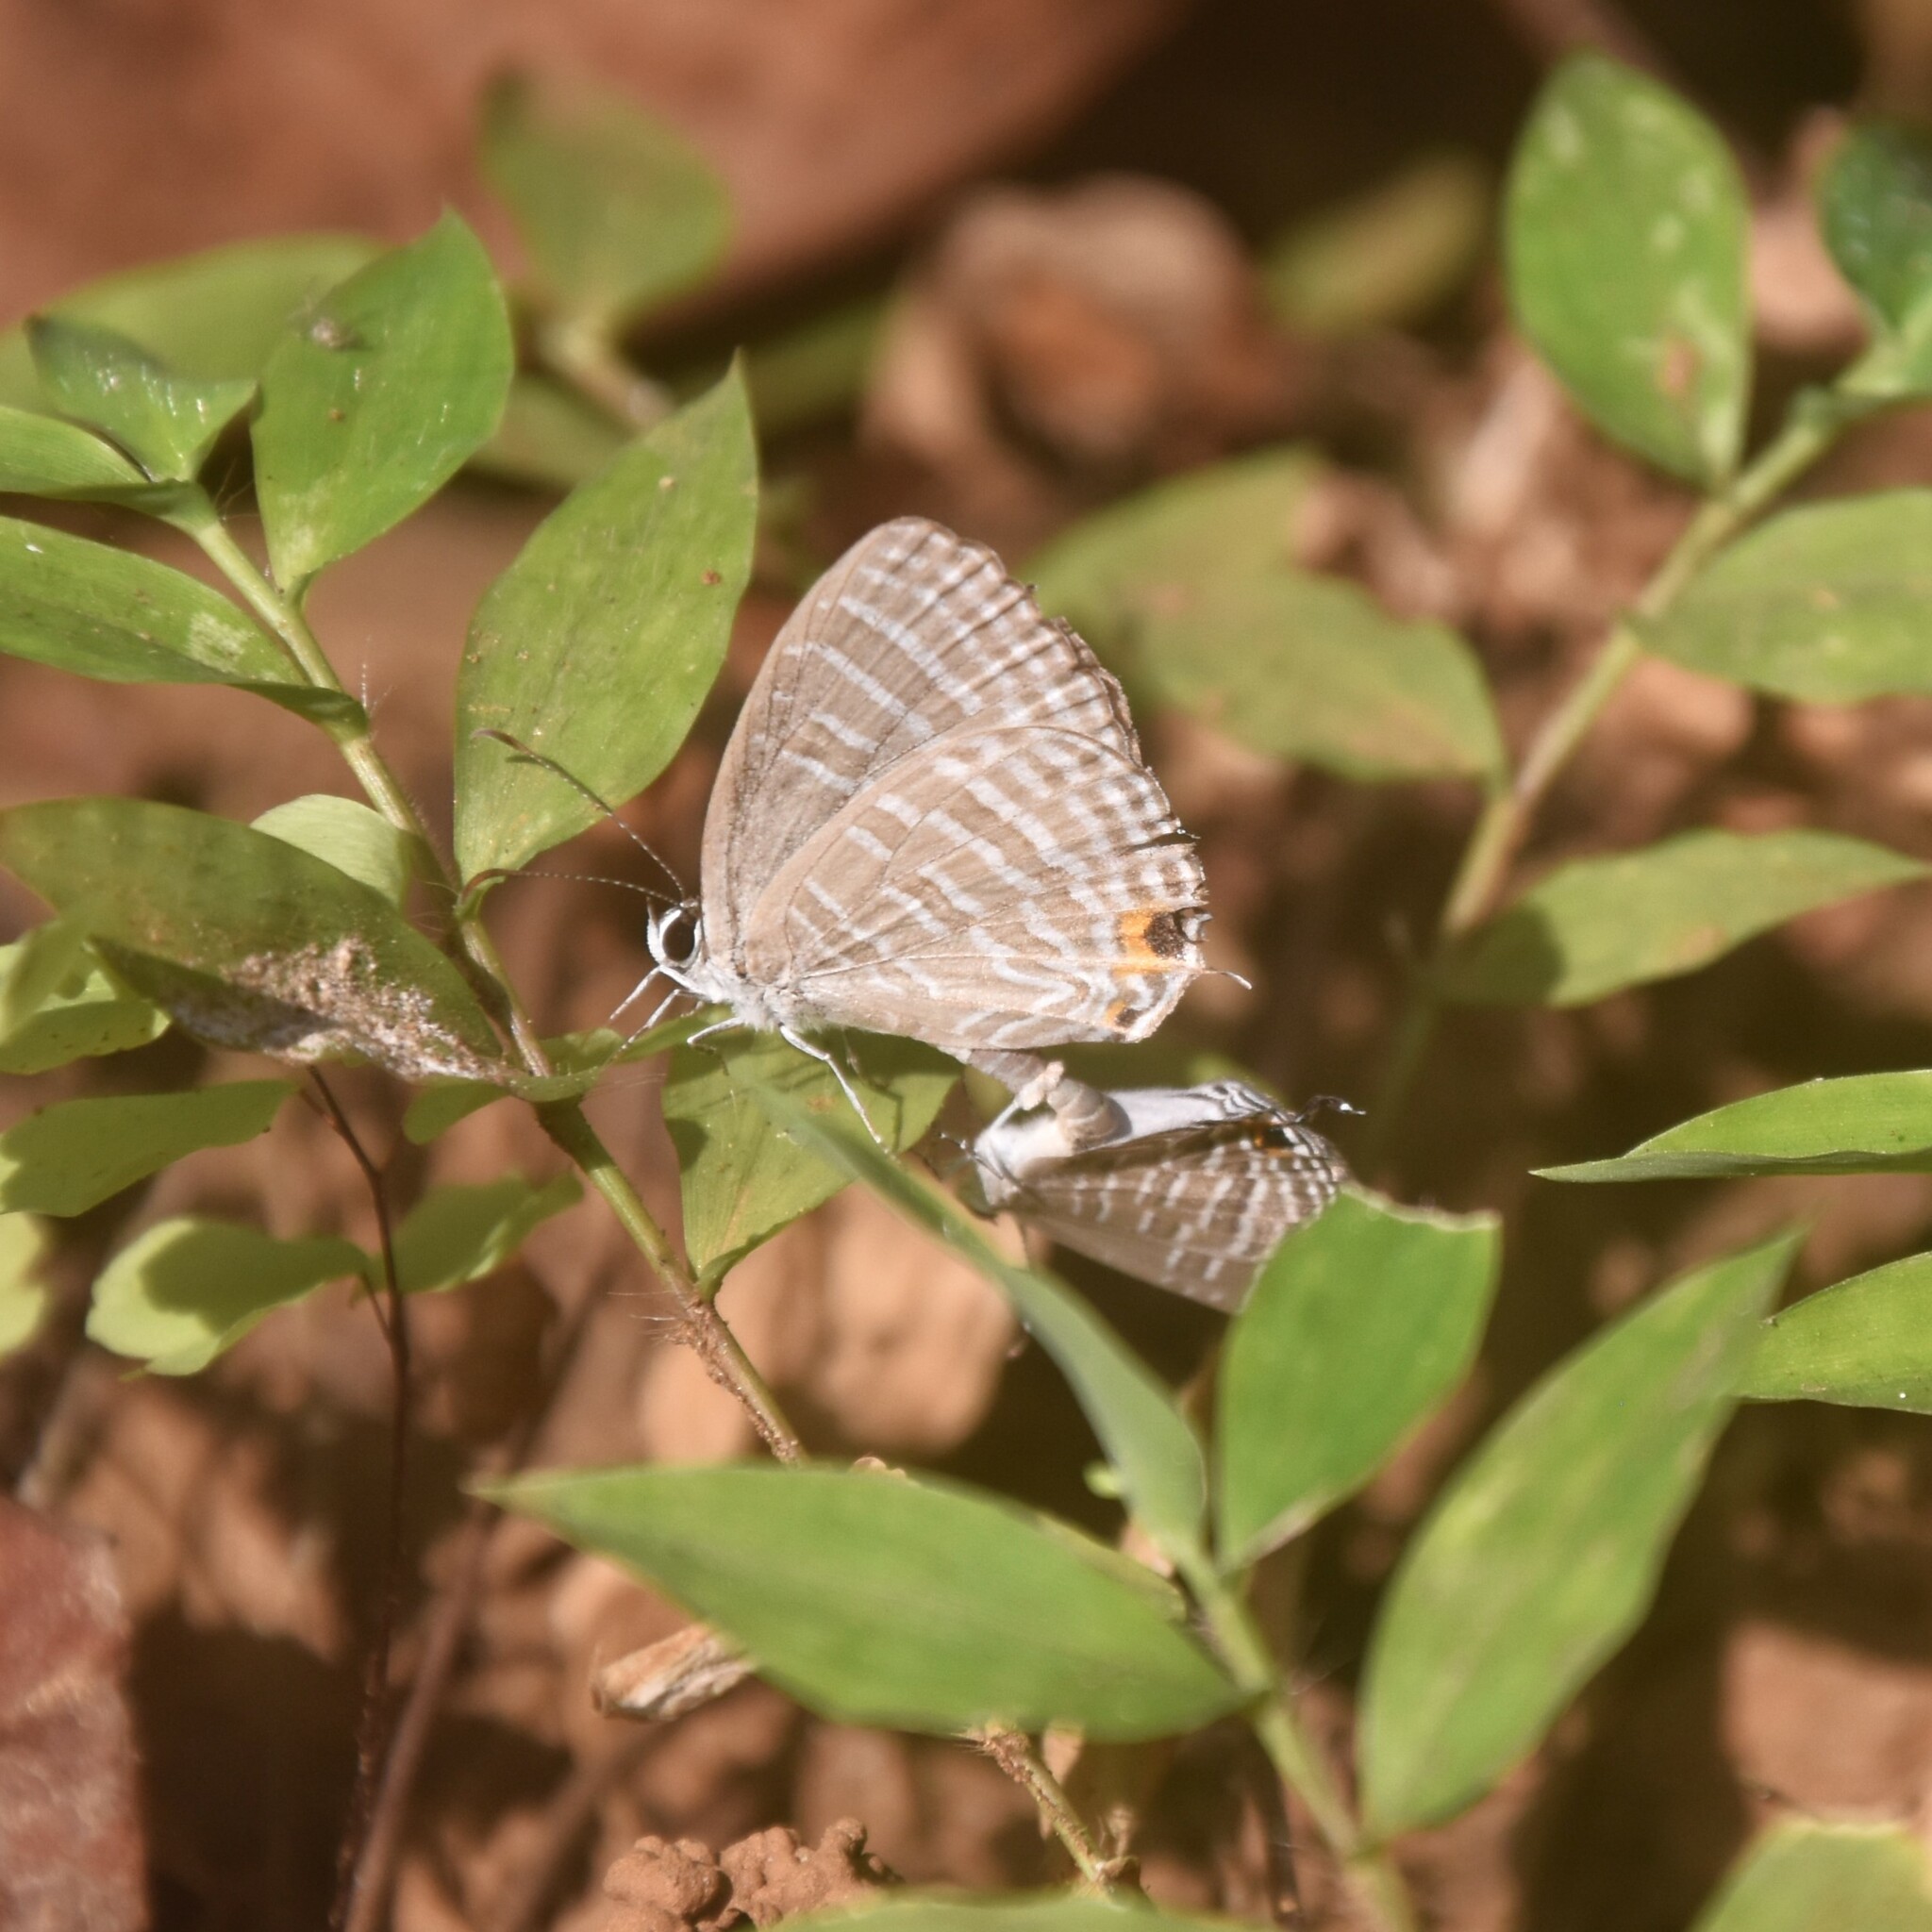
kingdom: Animalia
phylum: Arthropoda
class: Insecta
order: Lepidoptera
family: Lycaenidae
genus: Jamides
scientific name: Jamides celeno
